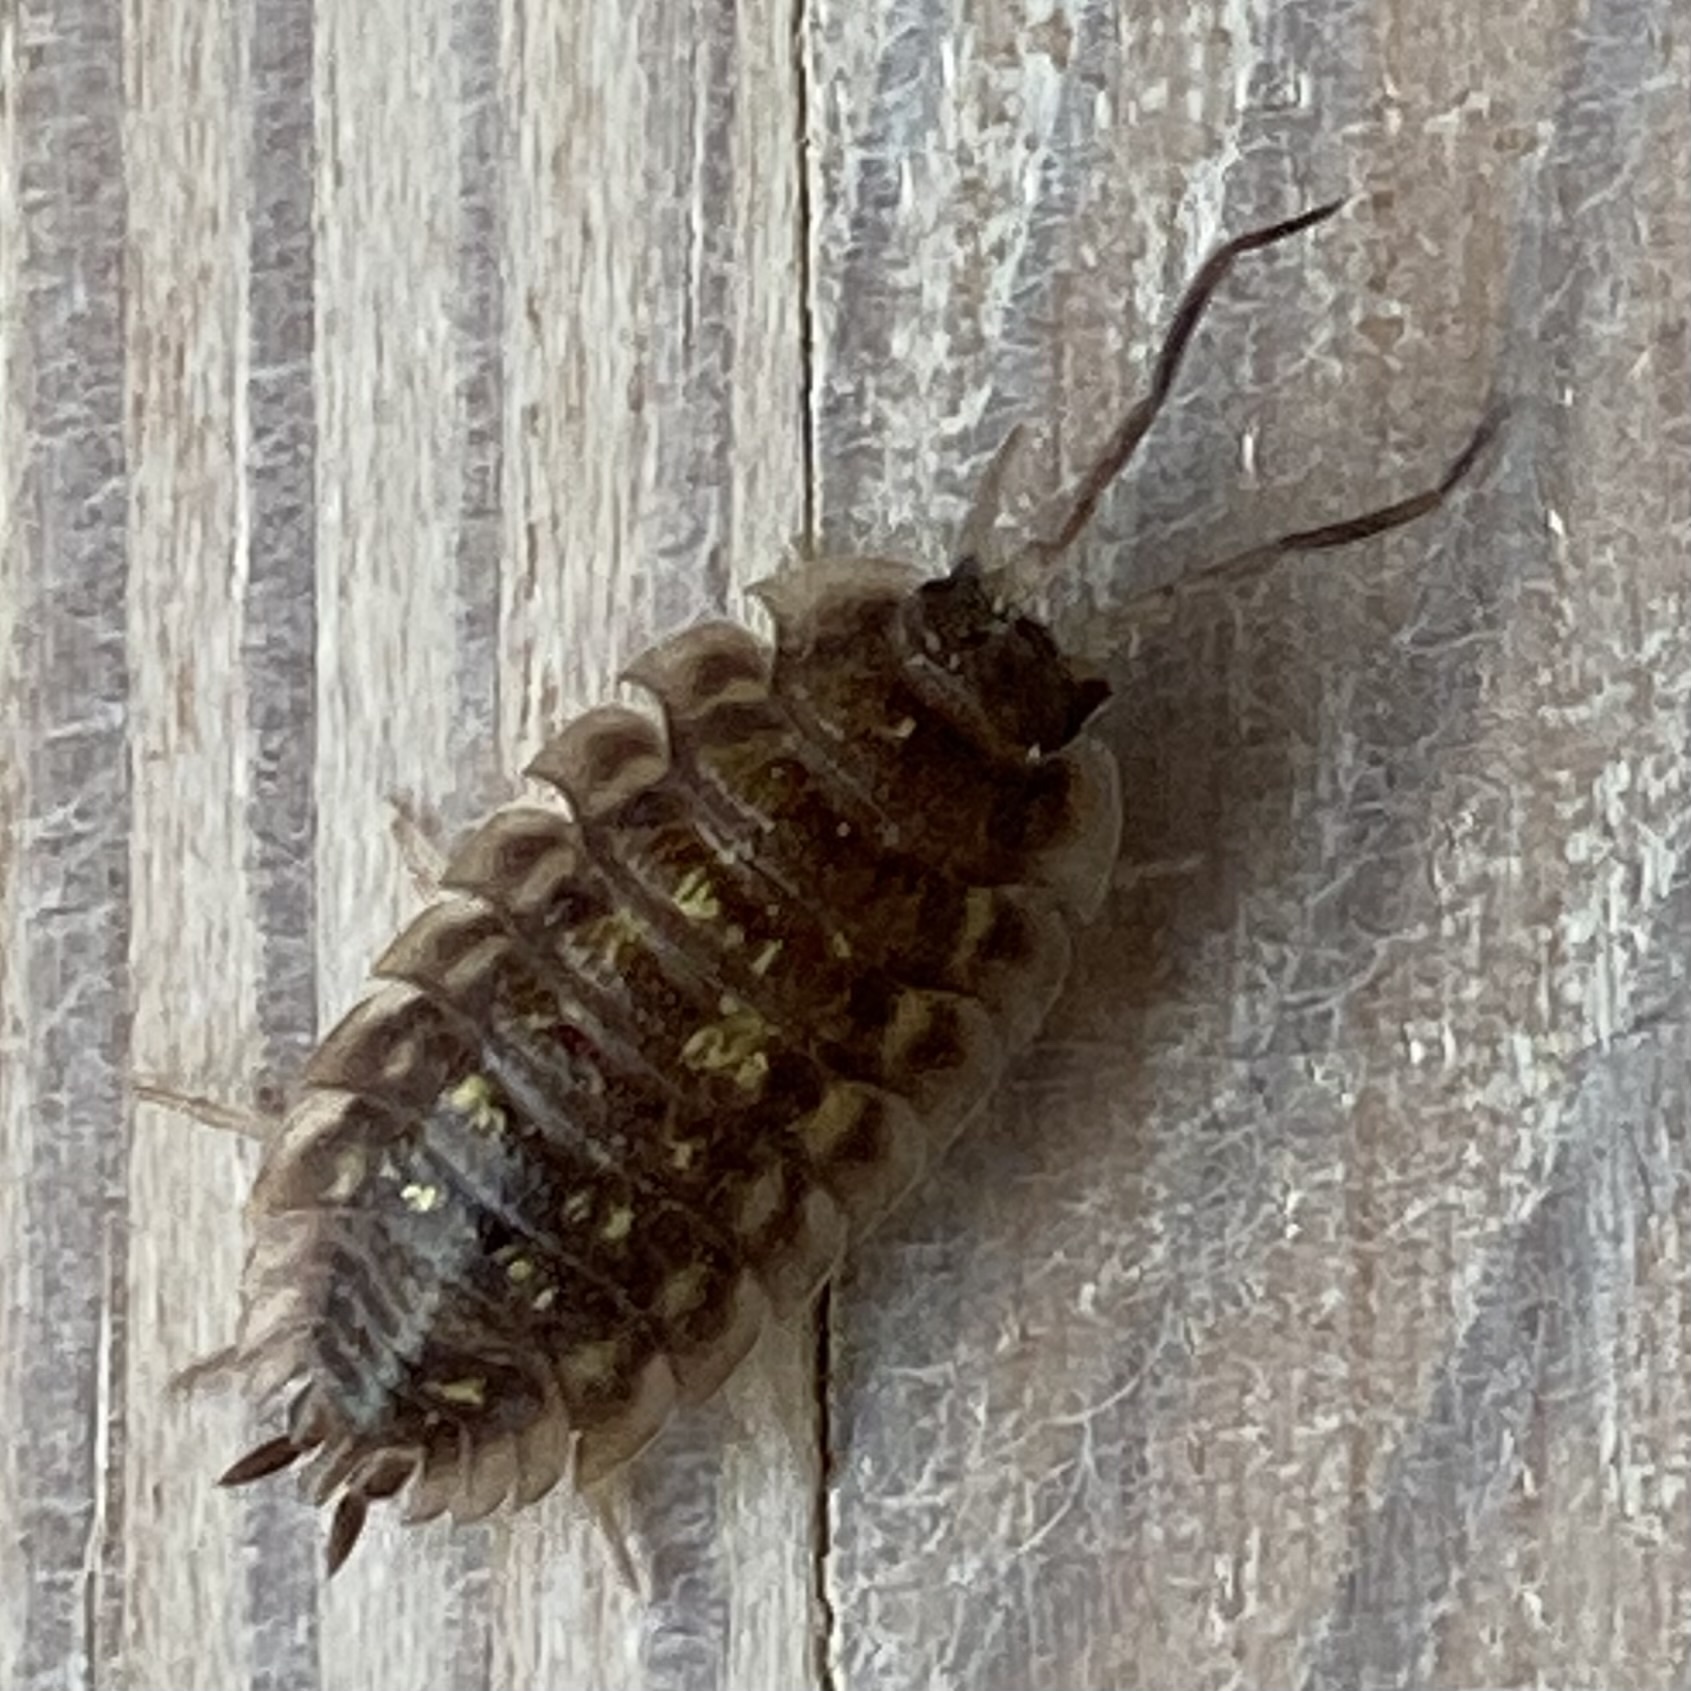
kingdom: Animalia
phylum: Arthropoda
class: Malacostraca
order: Isopoda
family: Oniscidae
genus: Oniscus
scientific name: Oniscus asellus
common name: Common shiny woodlouse
